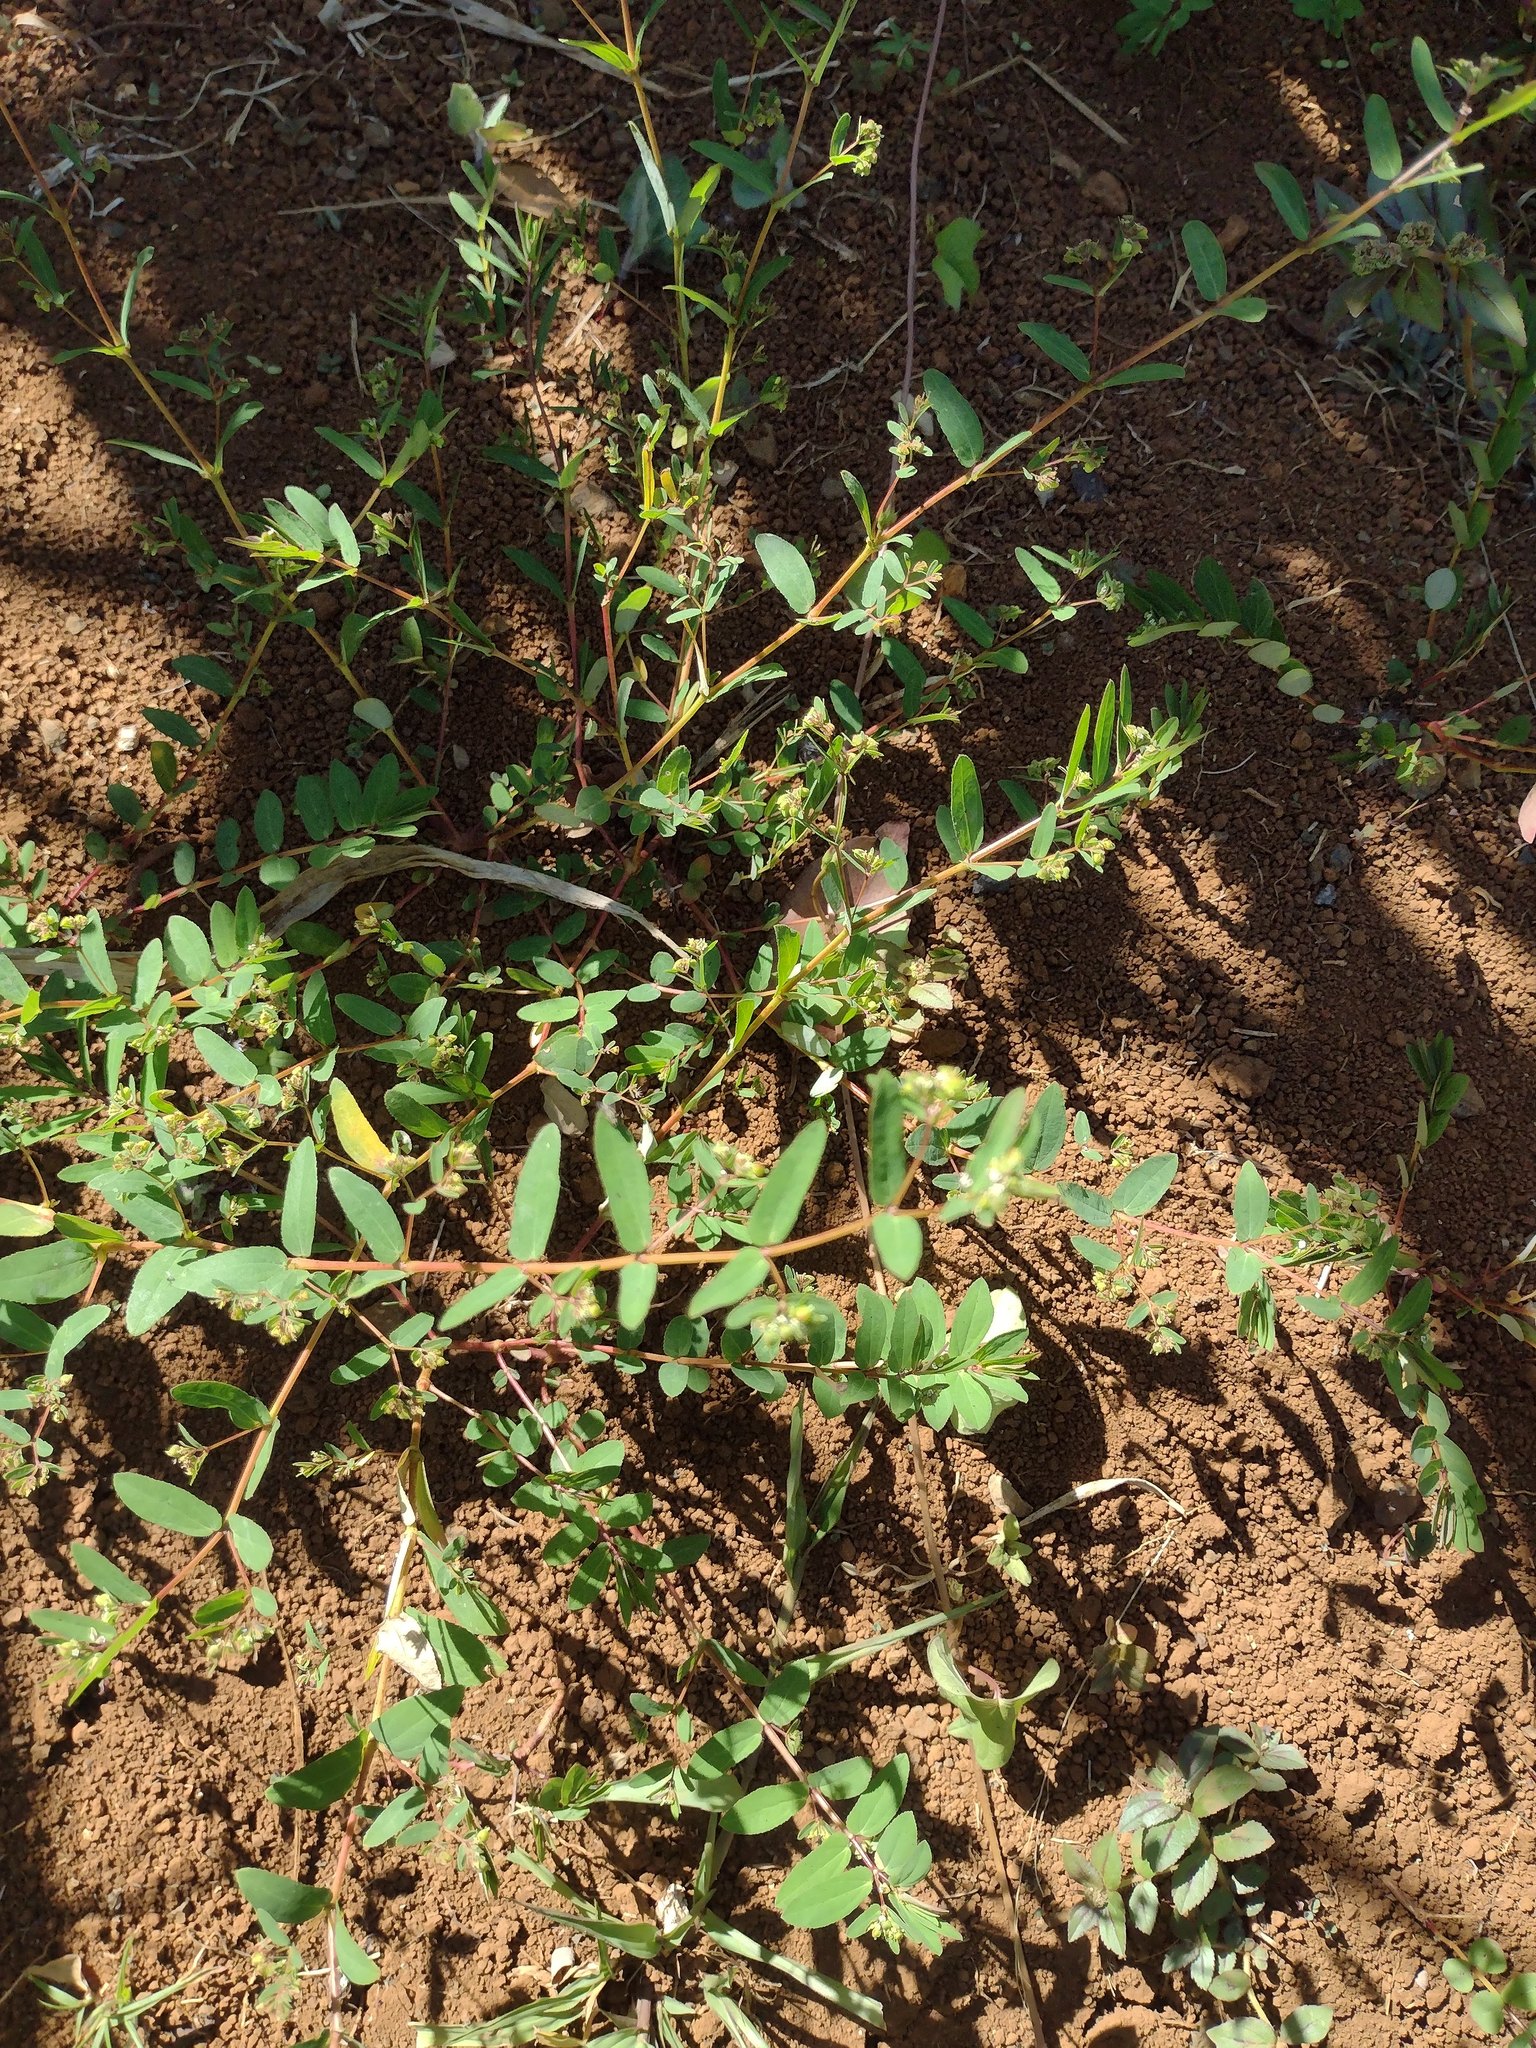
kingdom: Plantae
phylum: Tracheophyta
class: Magnoliopsida
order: Malpighiales
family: Euphorbiaceae
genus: Euphorbia
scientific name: Euphorbia hyssopifolia
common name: Hyssopleaf sandmat
